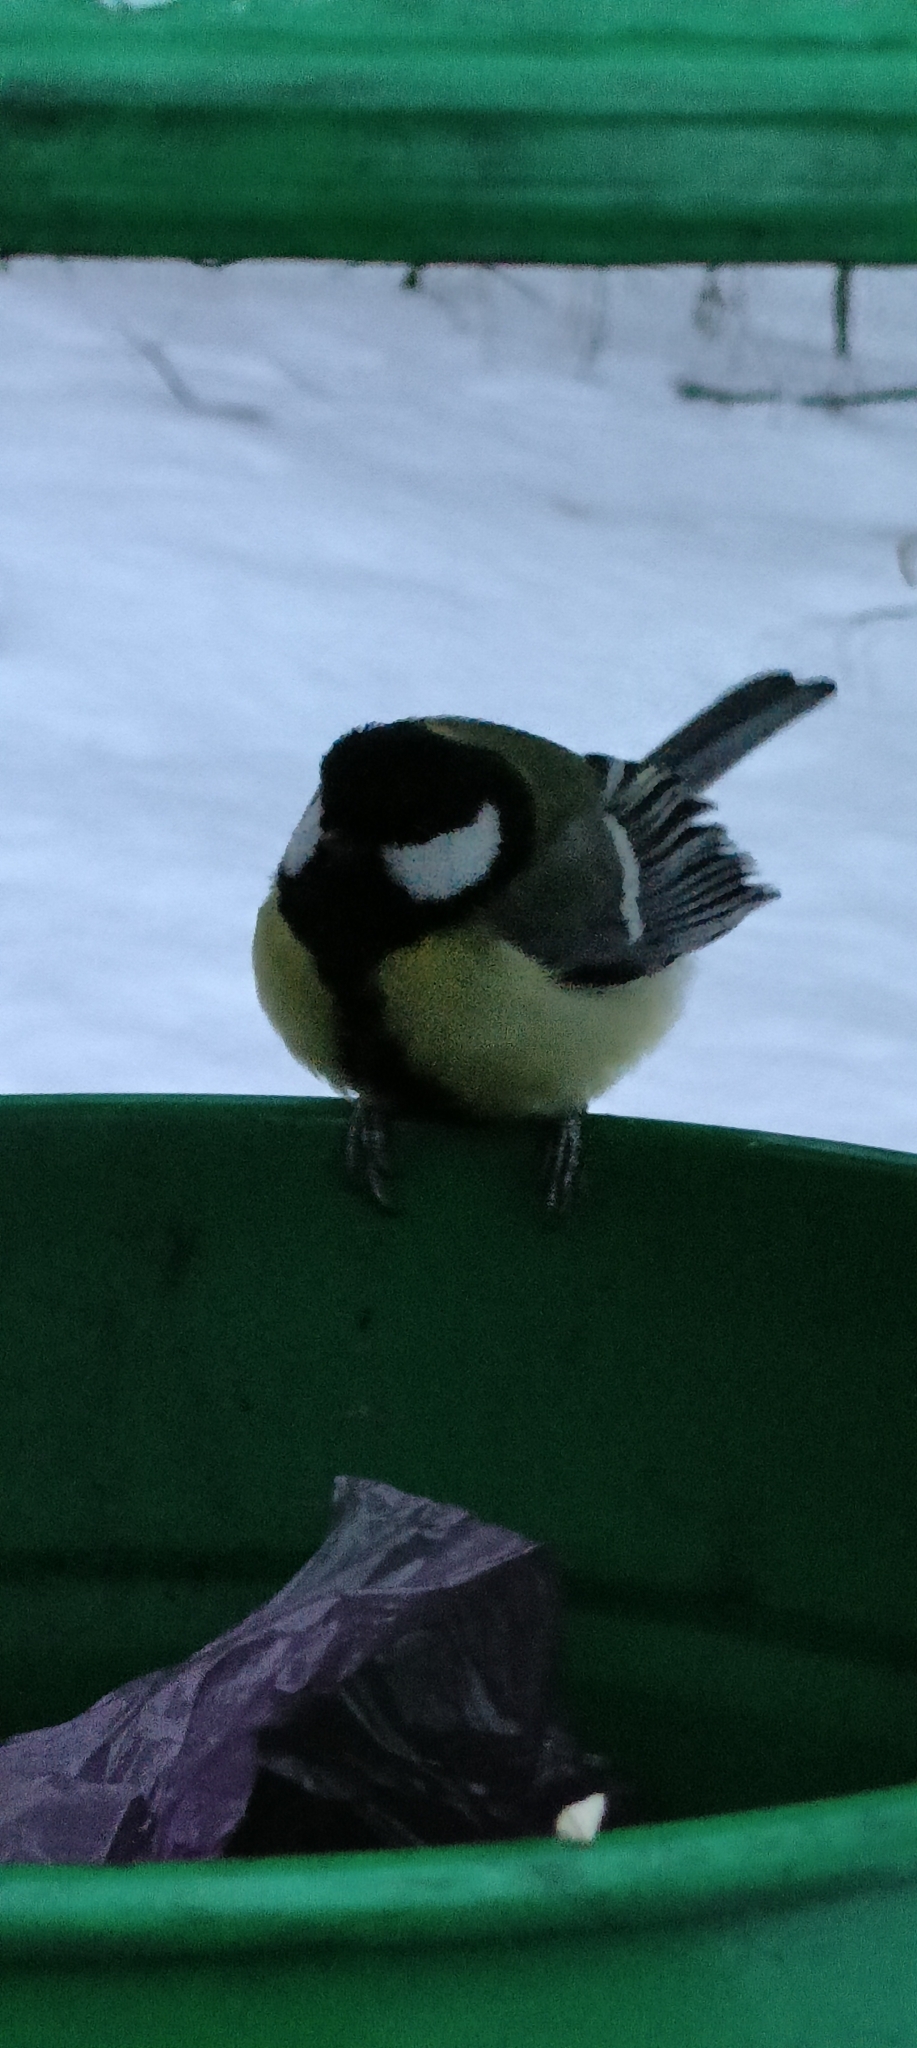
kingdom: Animalia
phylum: Chordata
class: Aves
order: Passeriformes
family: Paridae
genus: Parus
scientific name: Parus major
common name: Great tit
